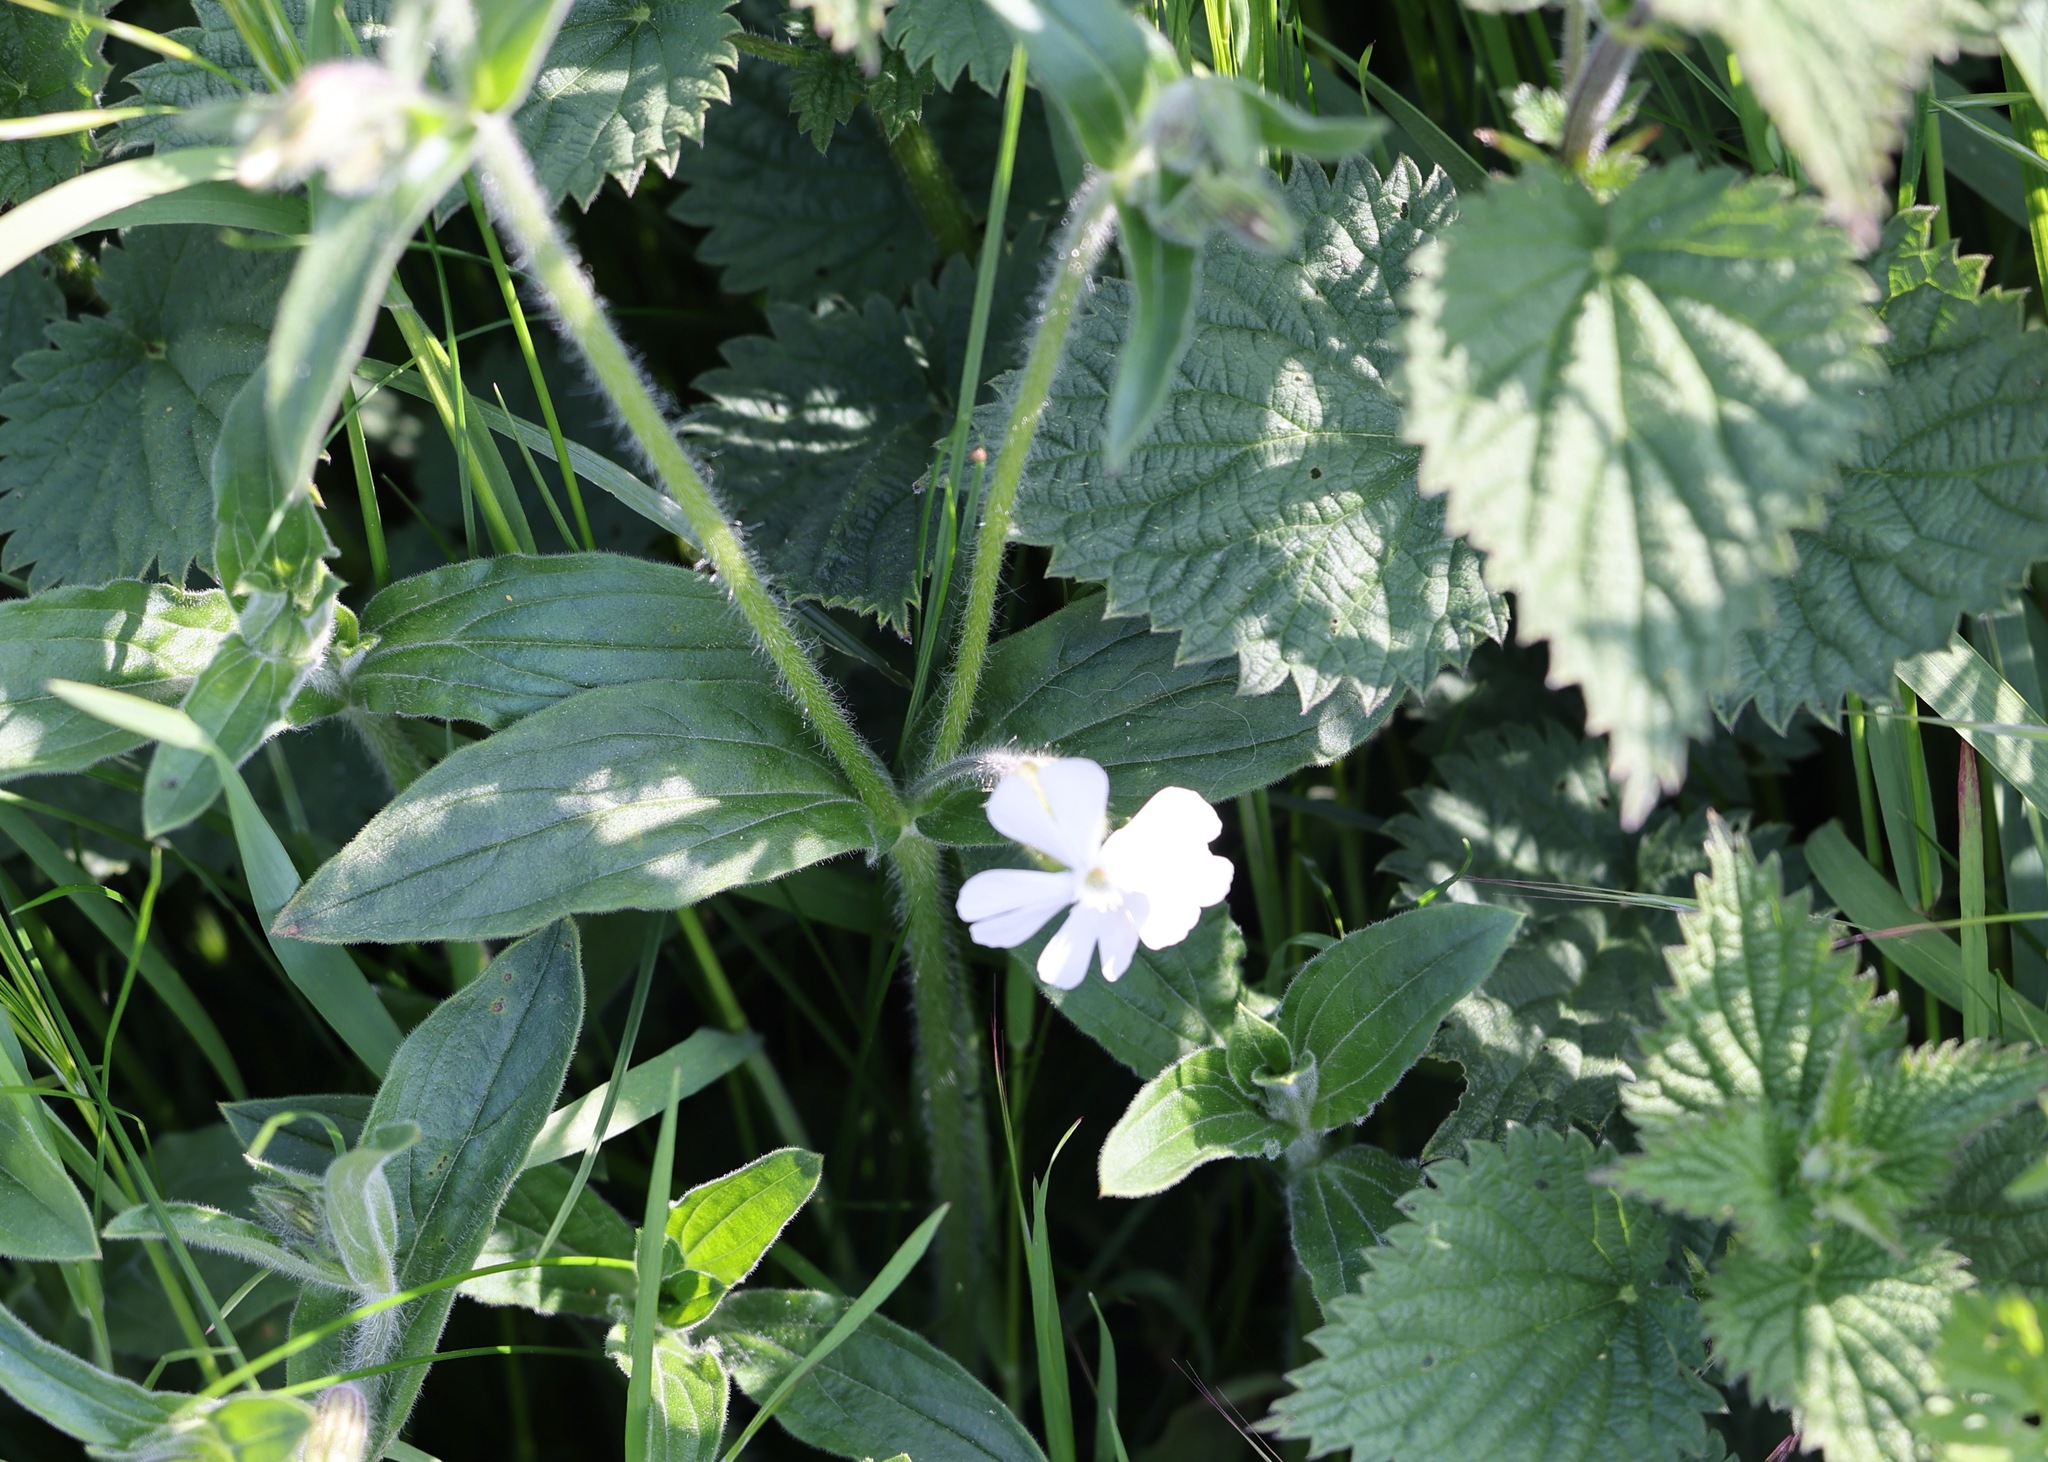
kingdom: Plantae
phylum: Tracheophyta
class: Magnoliopsida
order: Caryophyllales
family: Caryophyllaceae
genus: Silene
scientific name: Silene latifolia
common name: White campion
